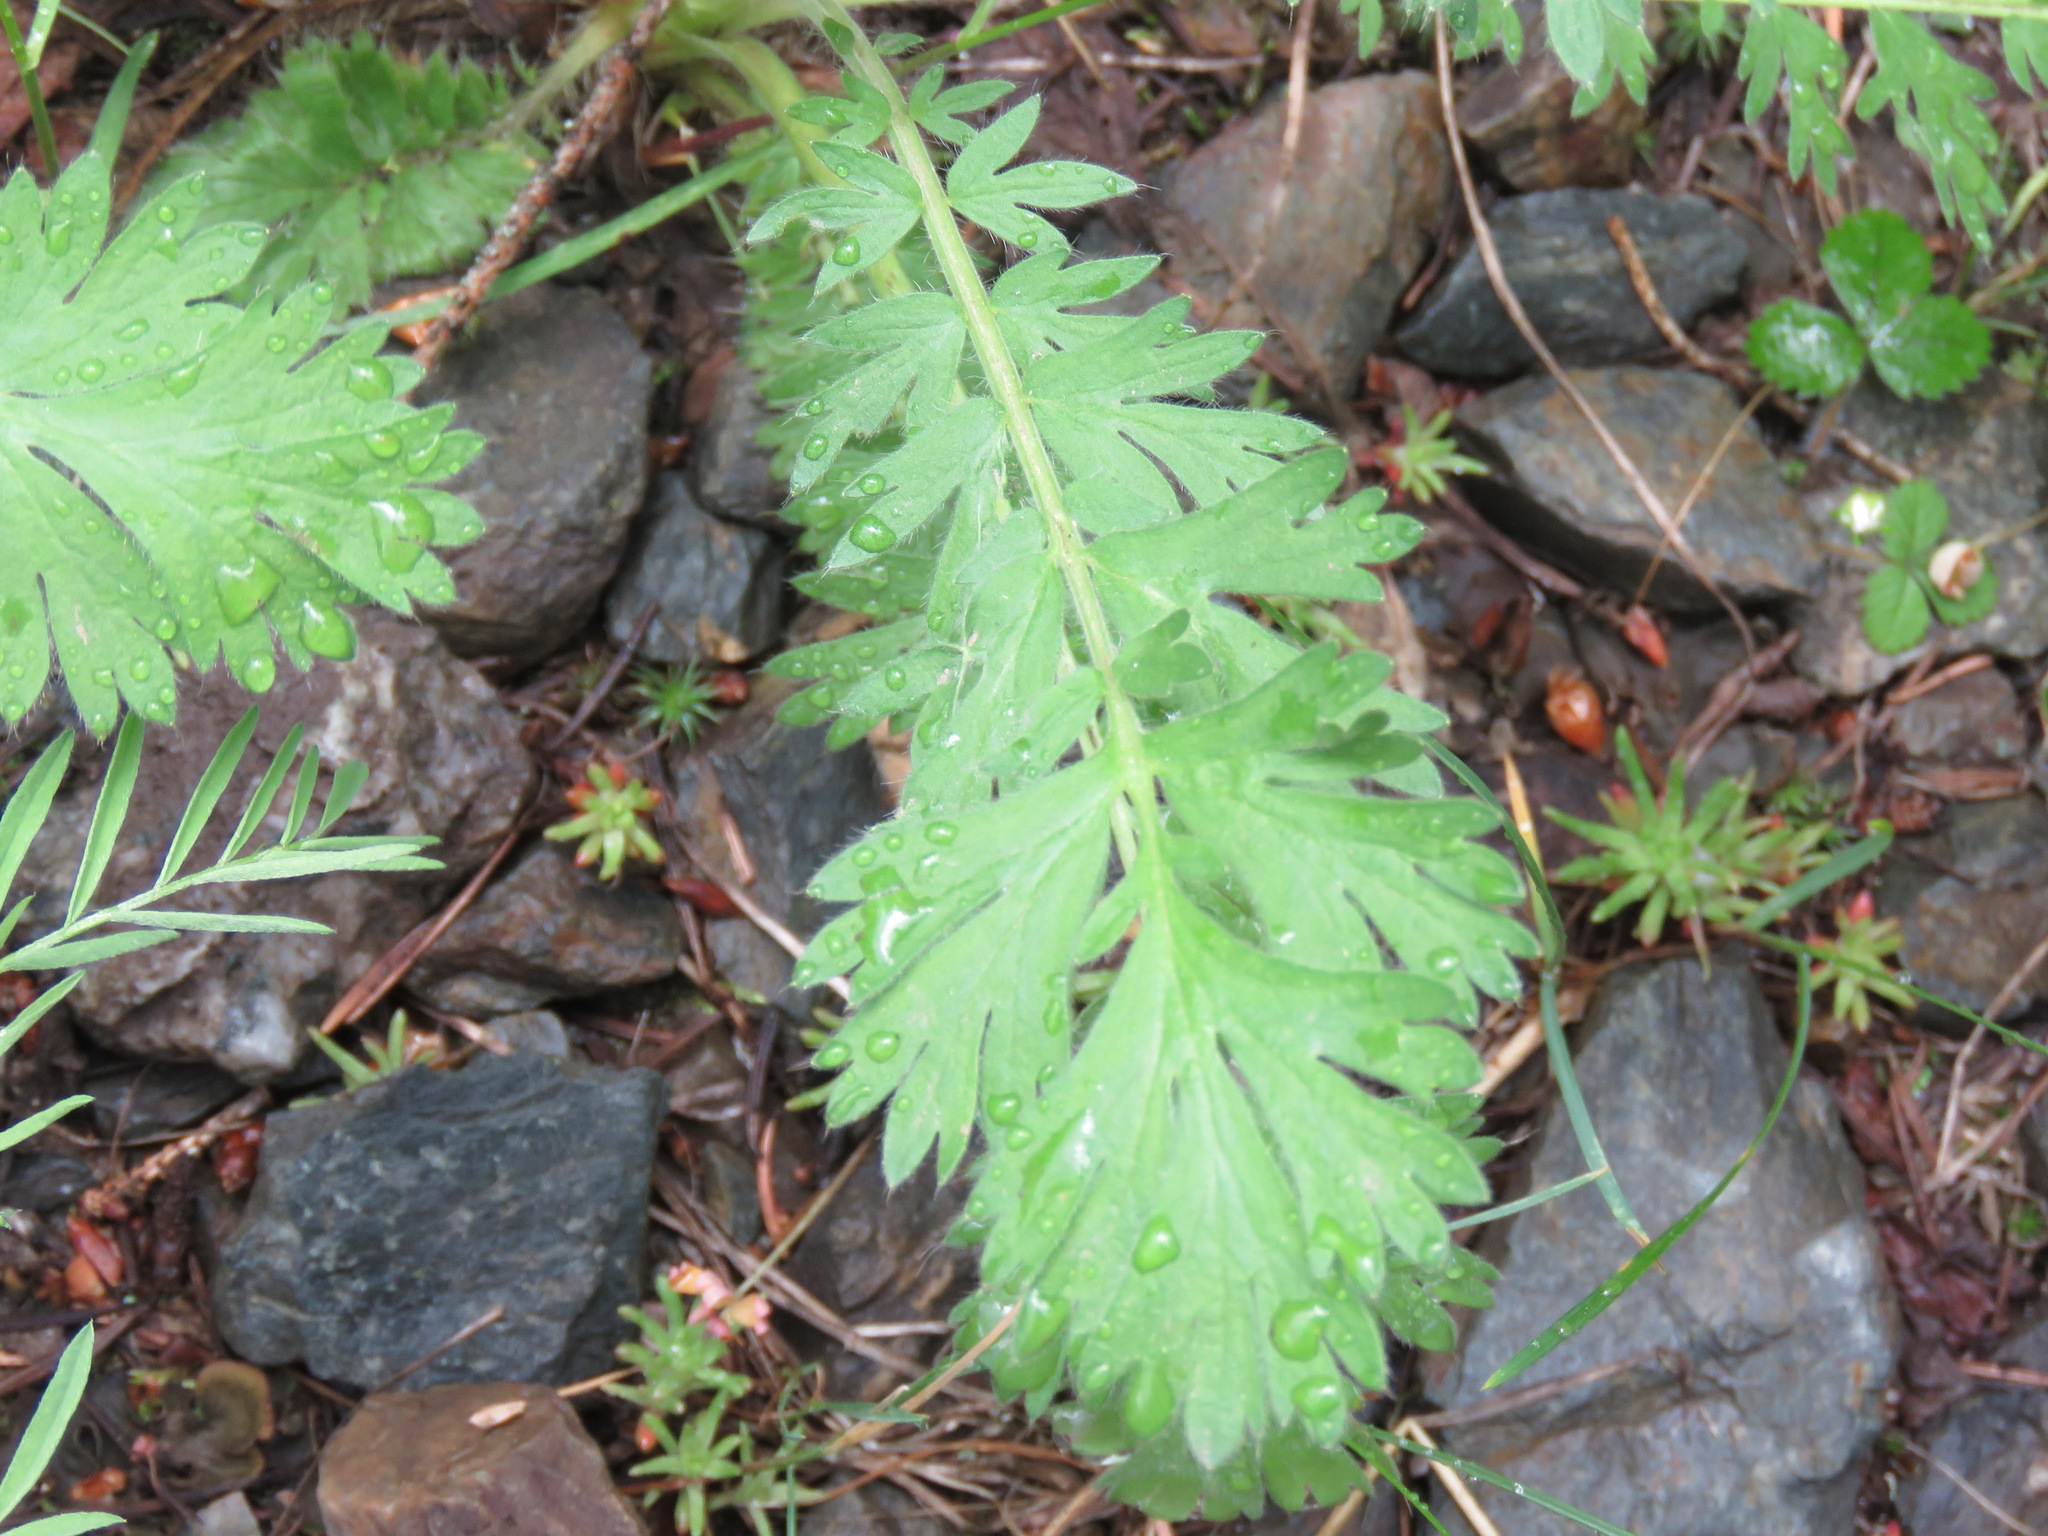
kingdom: Plantae
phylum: Tracheophyta
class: Magnoliopsida
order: Rosales
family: Rosaceae
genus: Geum
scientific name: Geum triflorum
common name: Old man's whiskers
